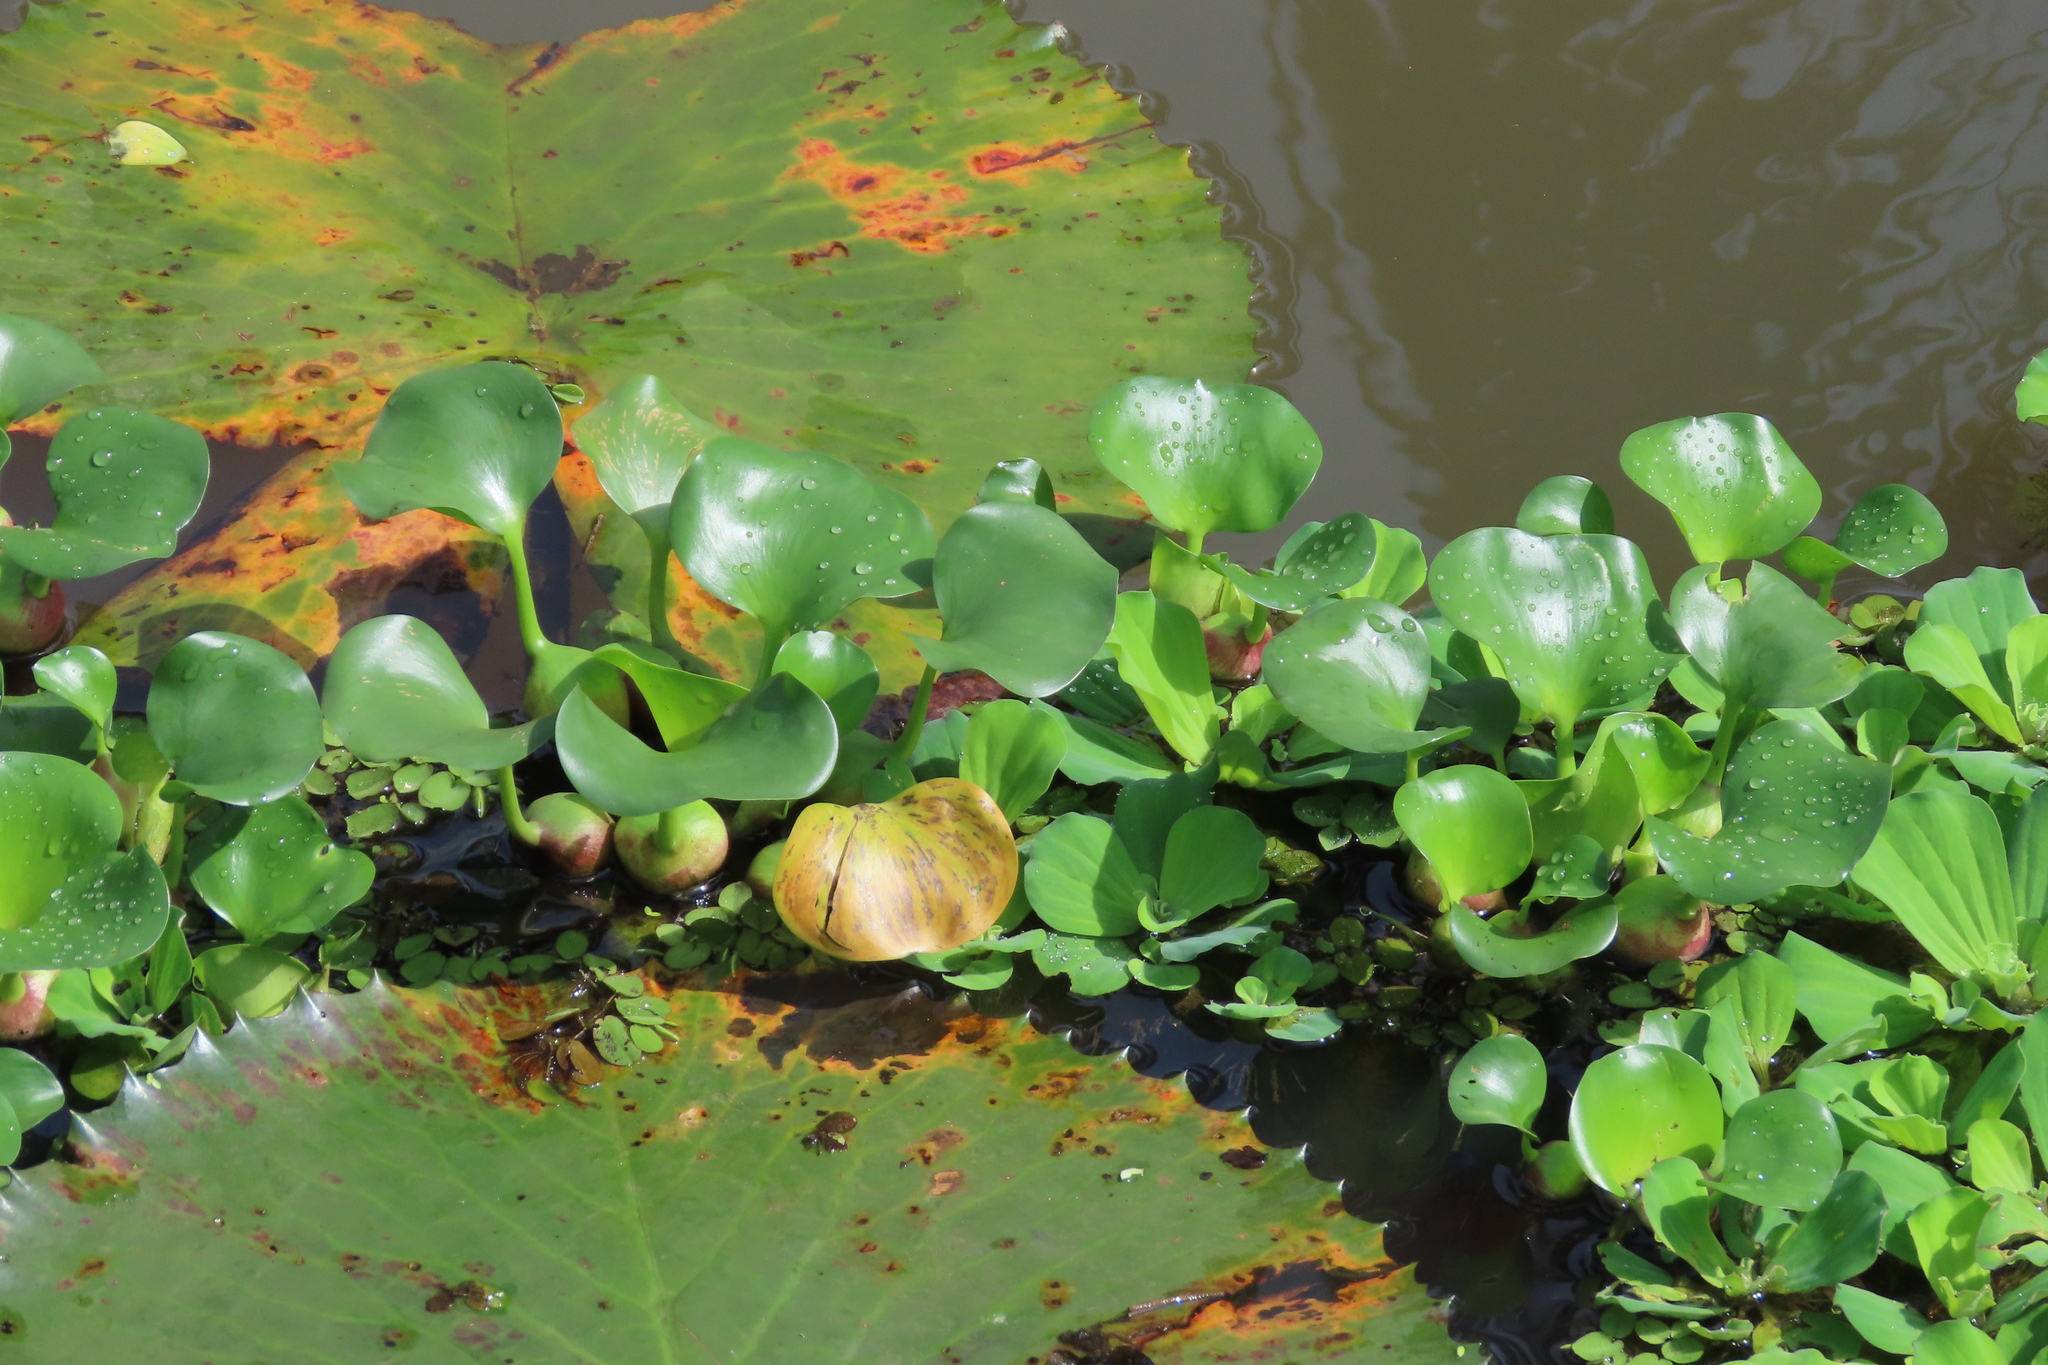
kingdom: Plantae
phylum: Tracheophyta
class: Liliopsida
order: Commelinales
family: Pontederiaceae
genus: Pontederia
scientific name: Pontederia crassipes
